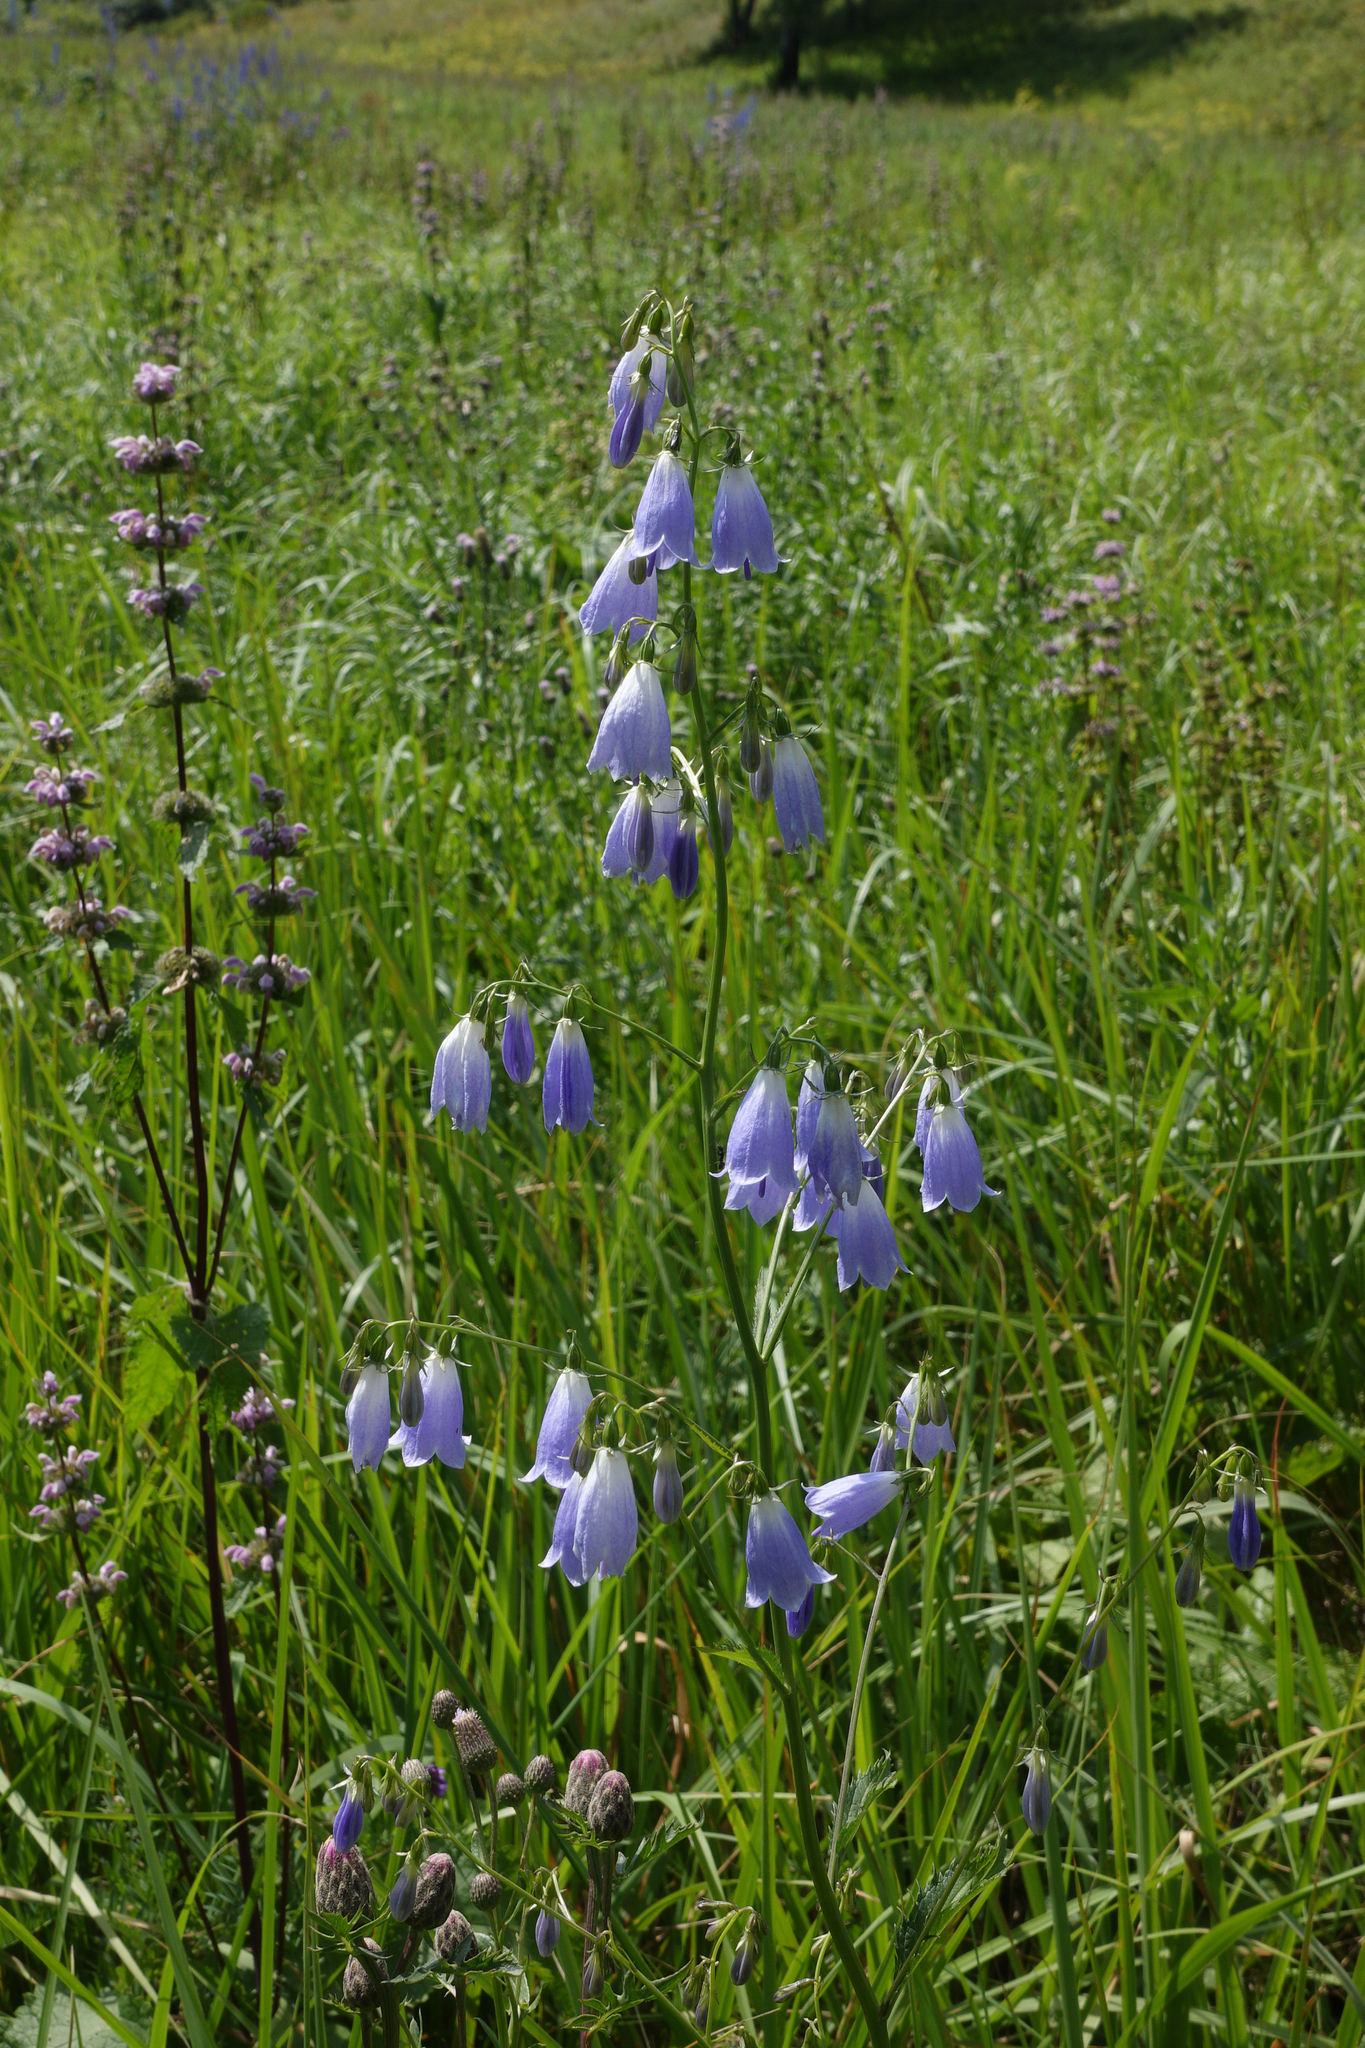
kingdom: Plantae
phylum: Tracheophyta
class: Magnoliopsida
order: Asterales
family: Campanulaceae
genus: Adenophora
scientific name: Adenophora liliifolia
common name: Lilyleaf ladybells
